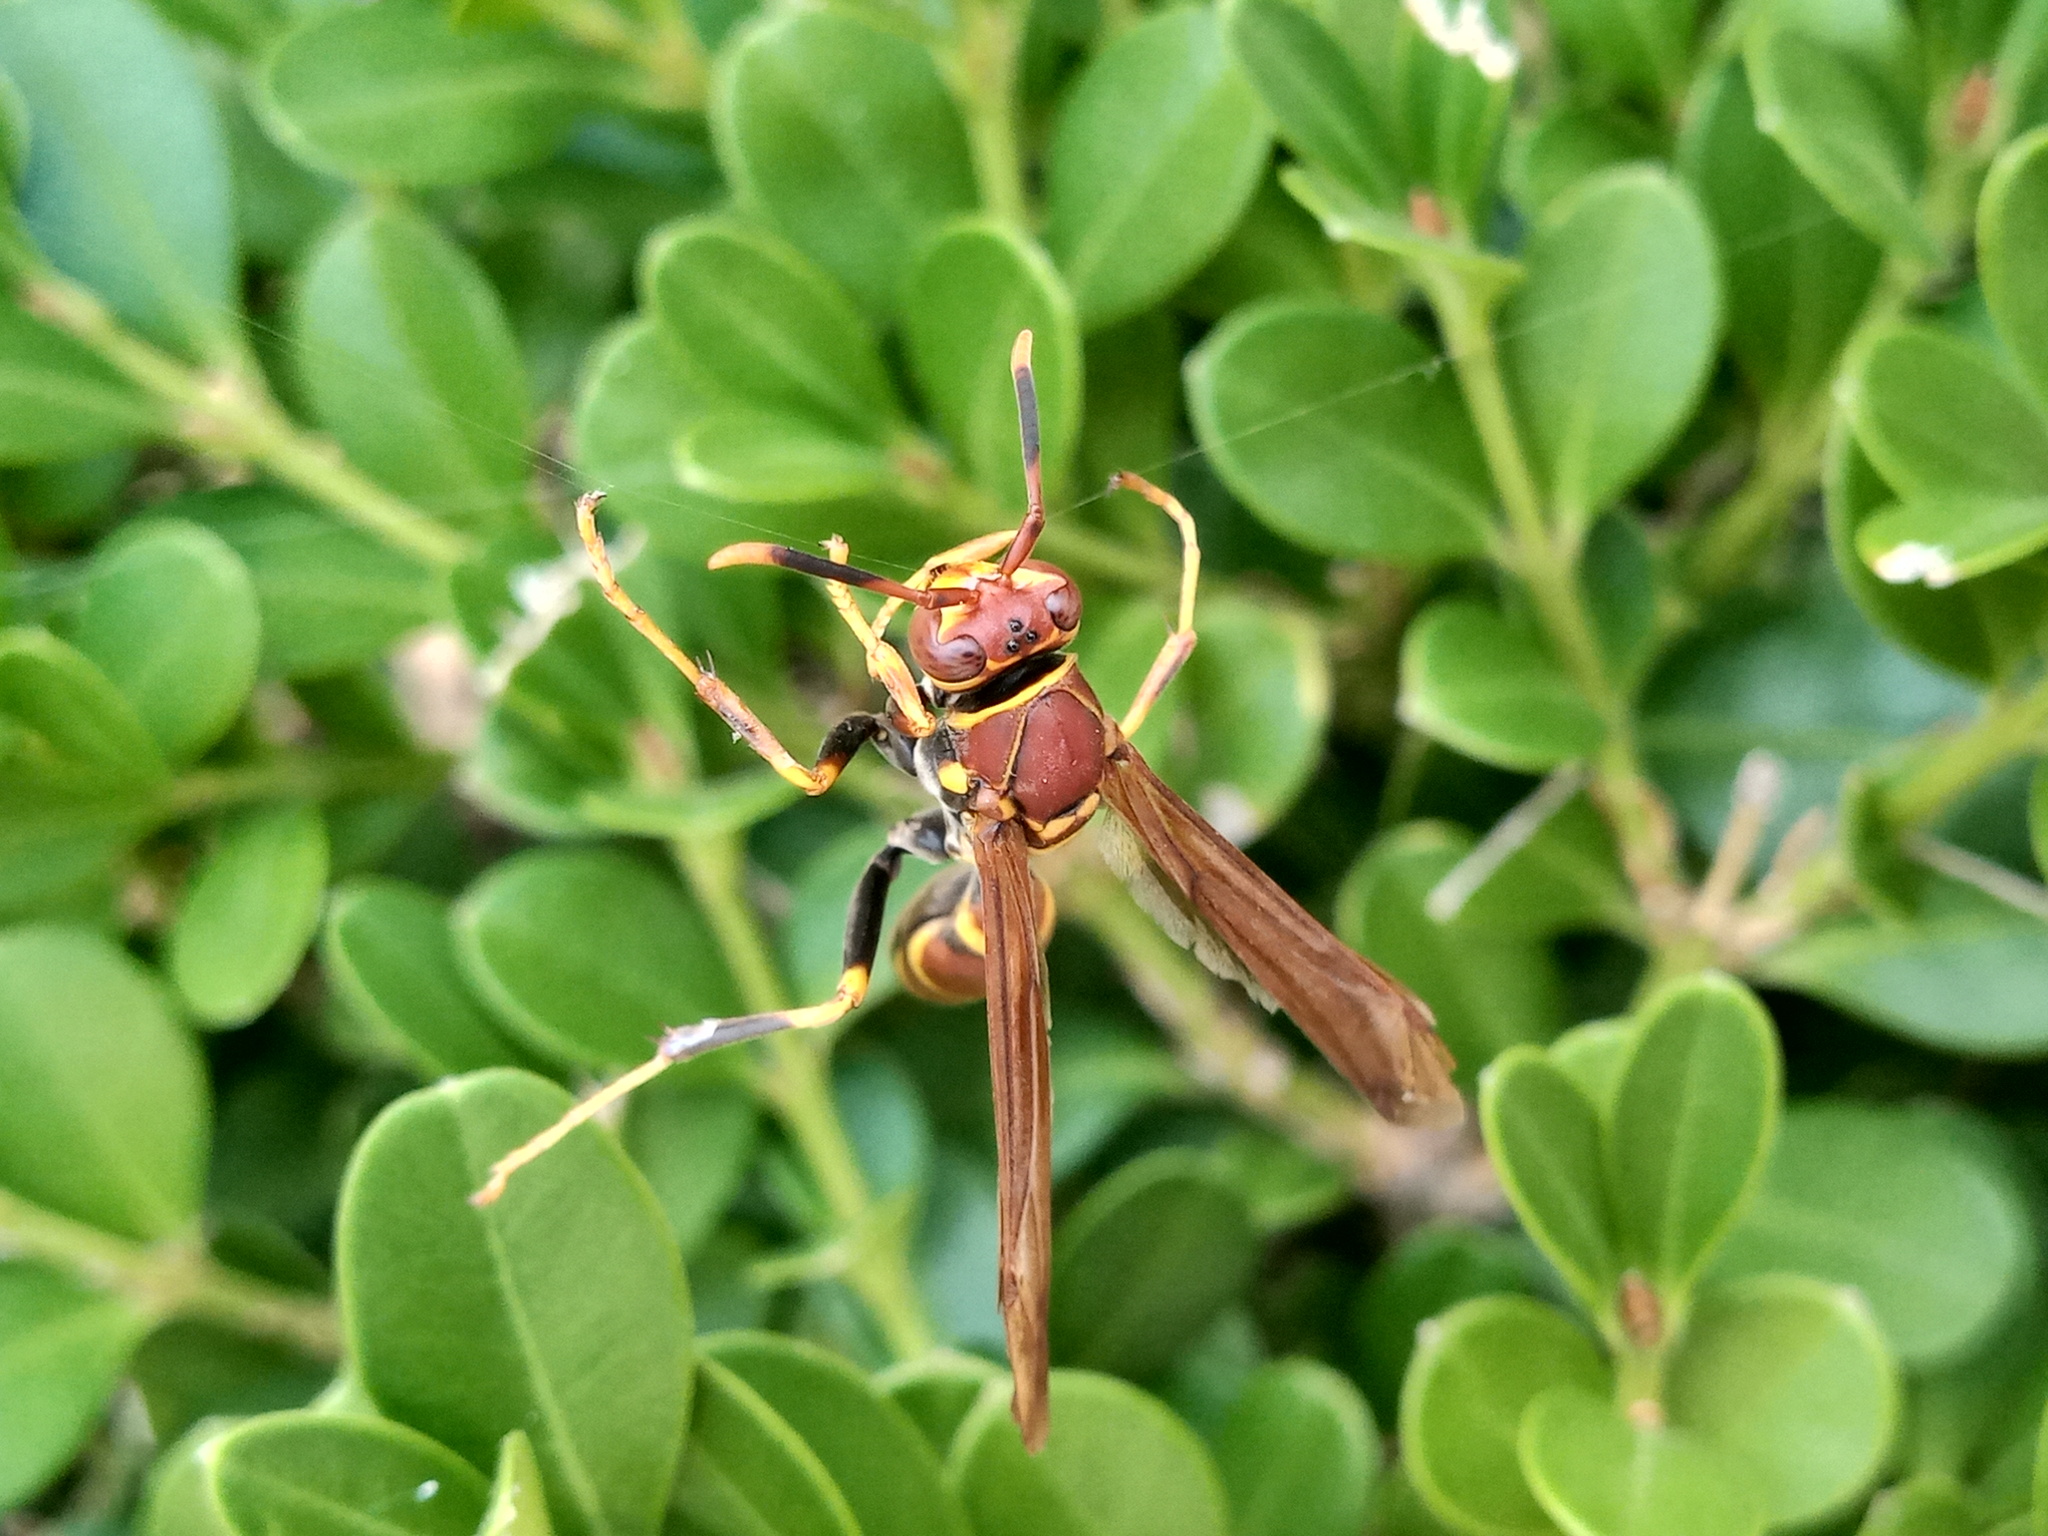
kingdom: Animalia
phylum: Arthropoda
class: Insecta
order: Hymenoptera
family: Eumenidae
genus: Polistes
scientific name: Polistes instabilis
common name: Unstable paper wasp
